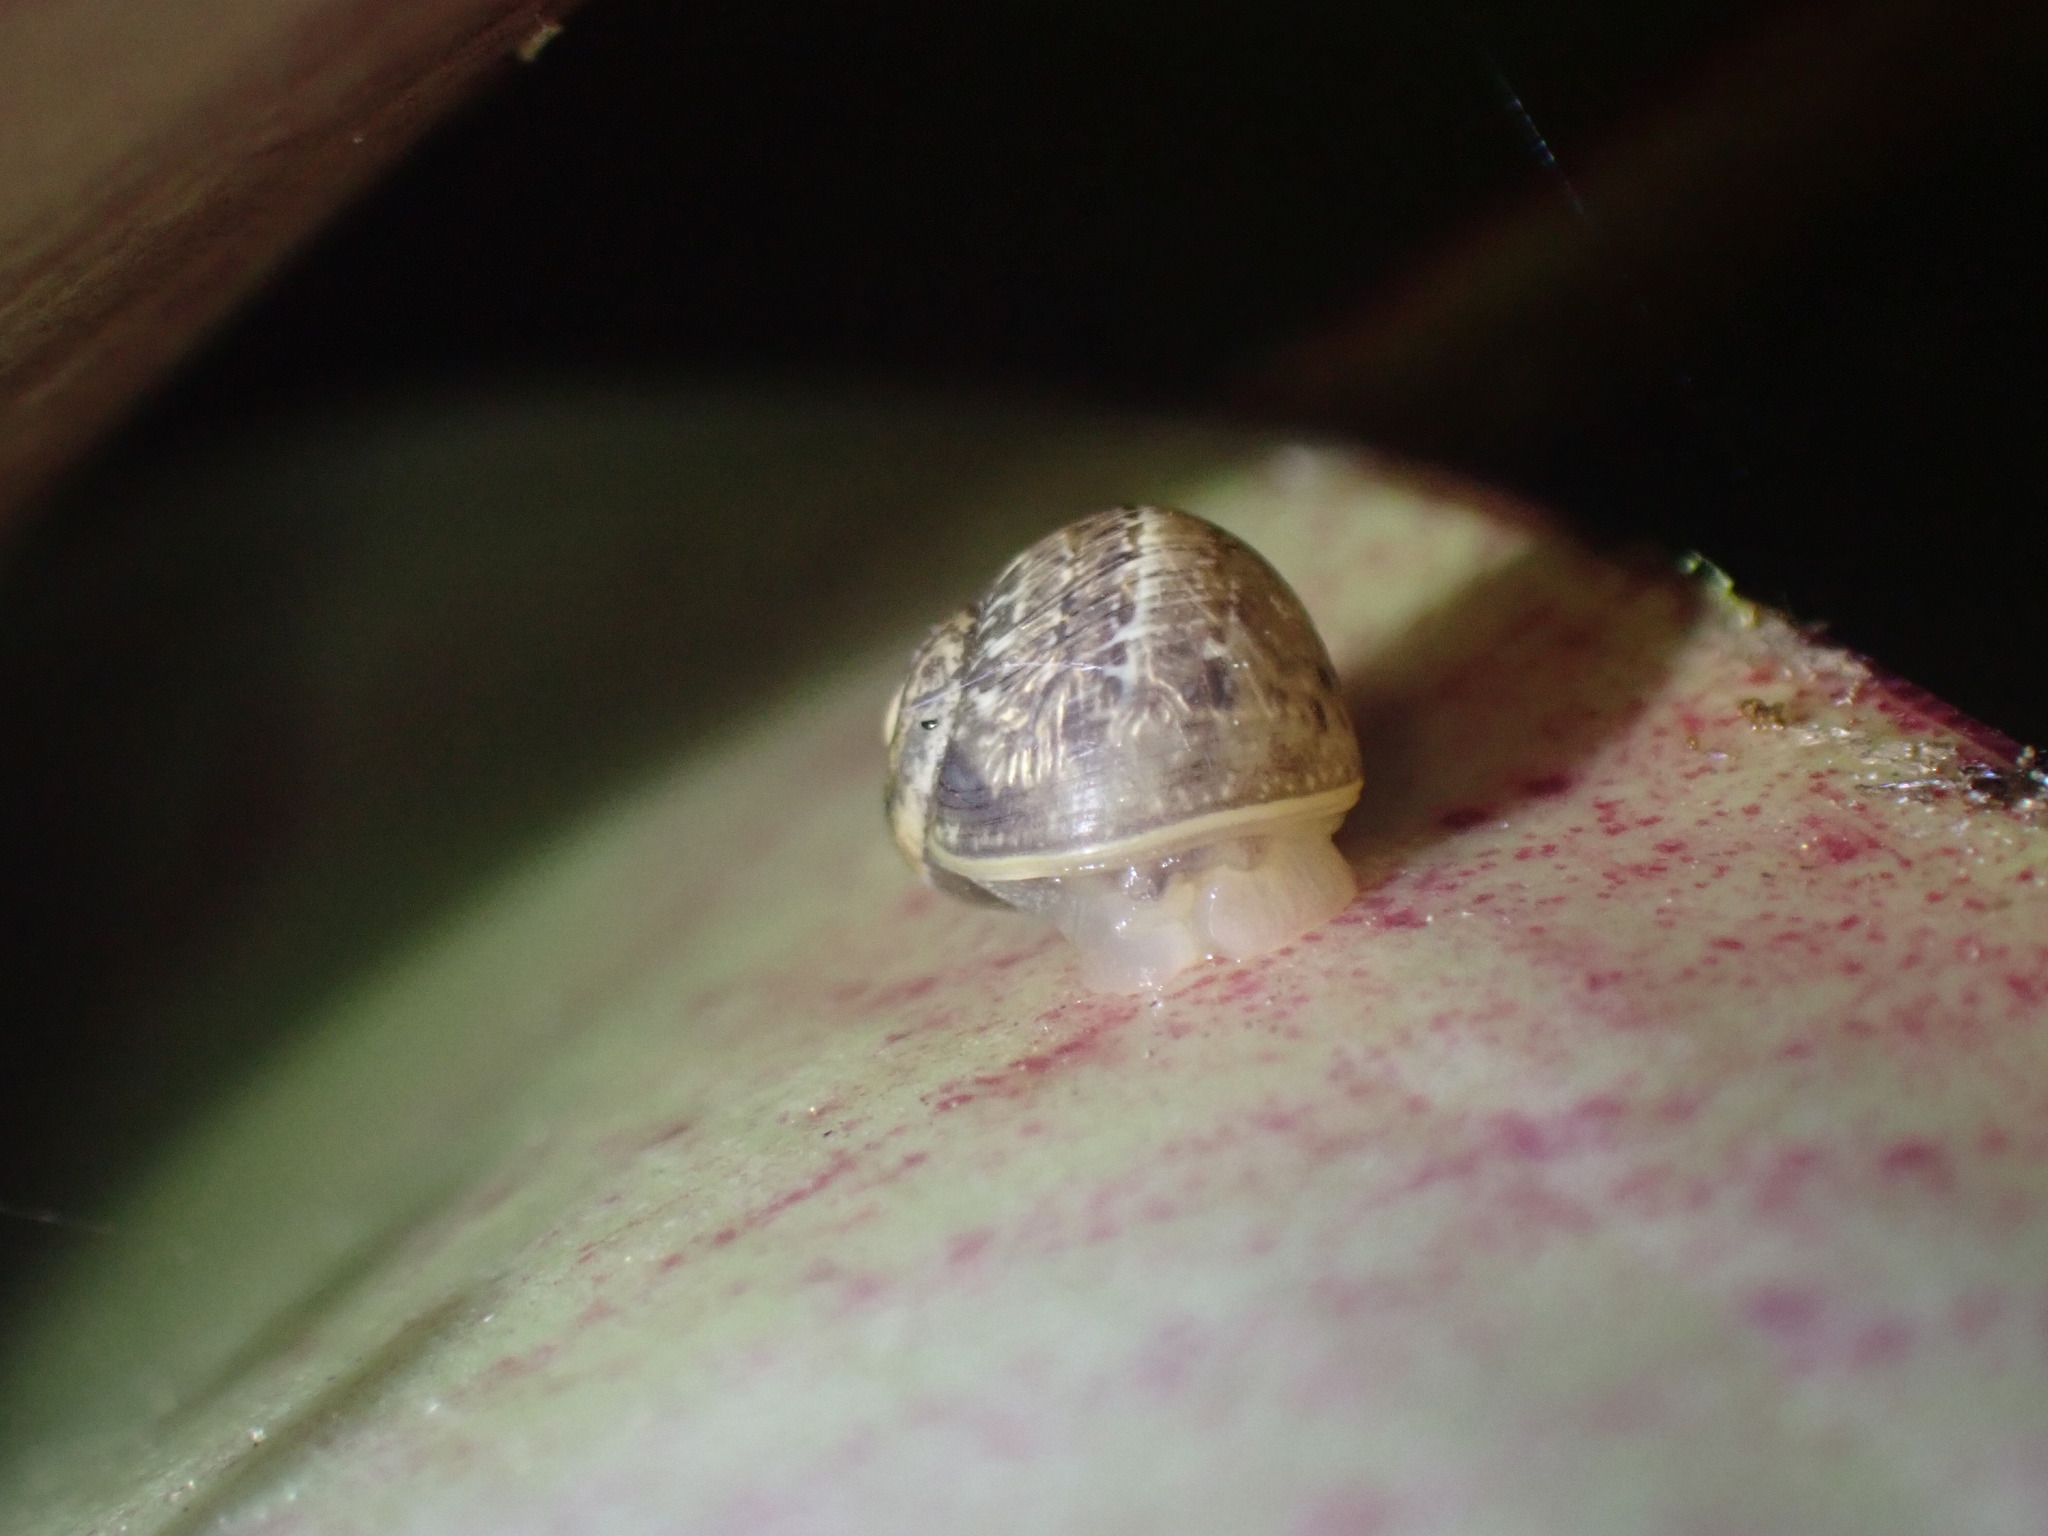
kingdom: Animalia
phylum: Mollusca
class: Gastropoda
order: Stylommatophora
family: Helicidae
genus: Cornu
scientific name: Cornu aspersum
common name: Brown garden snail
